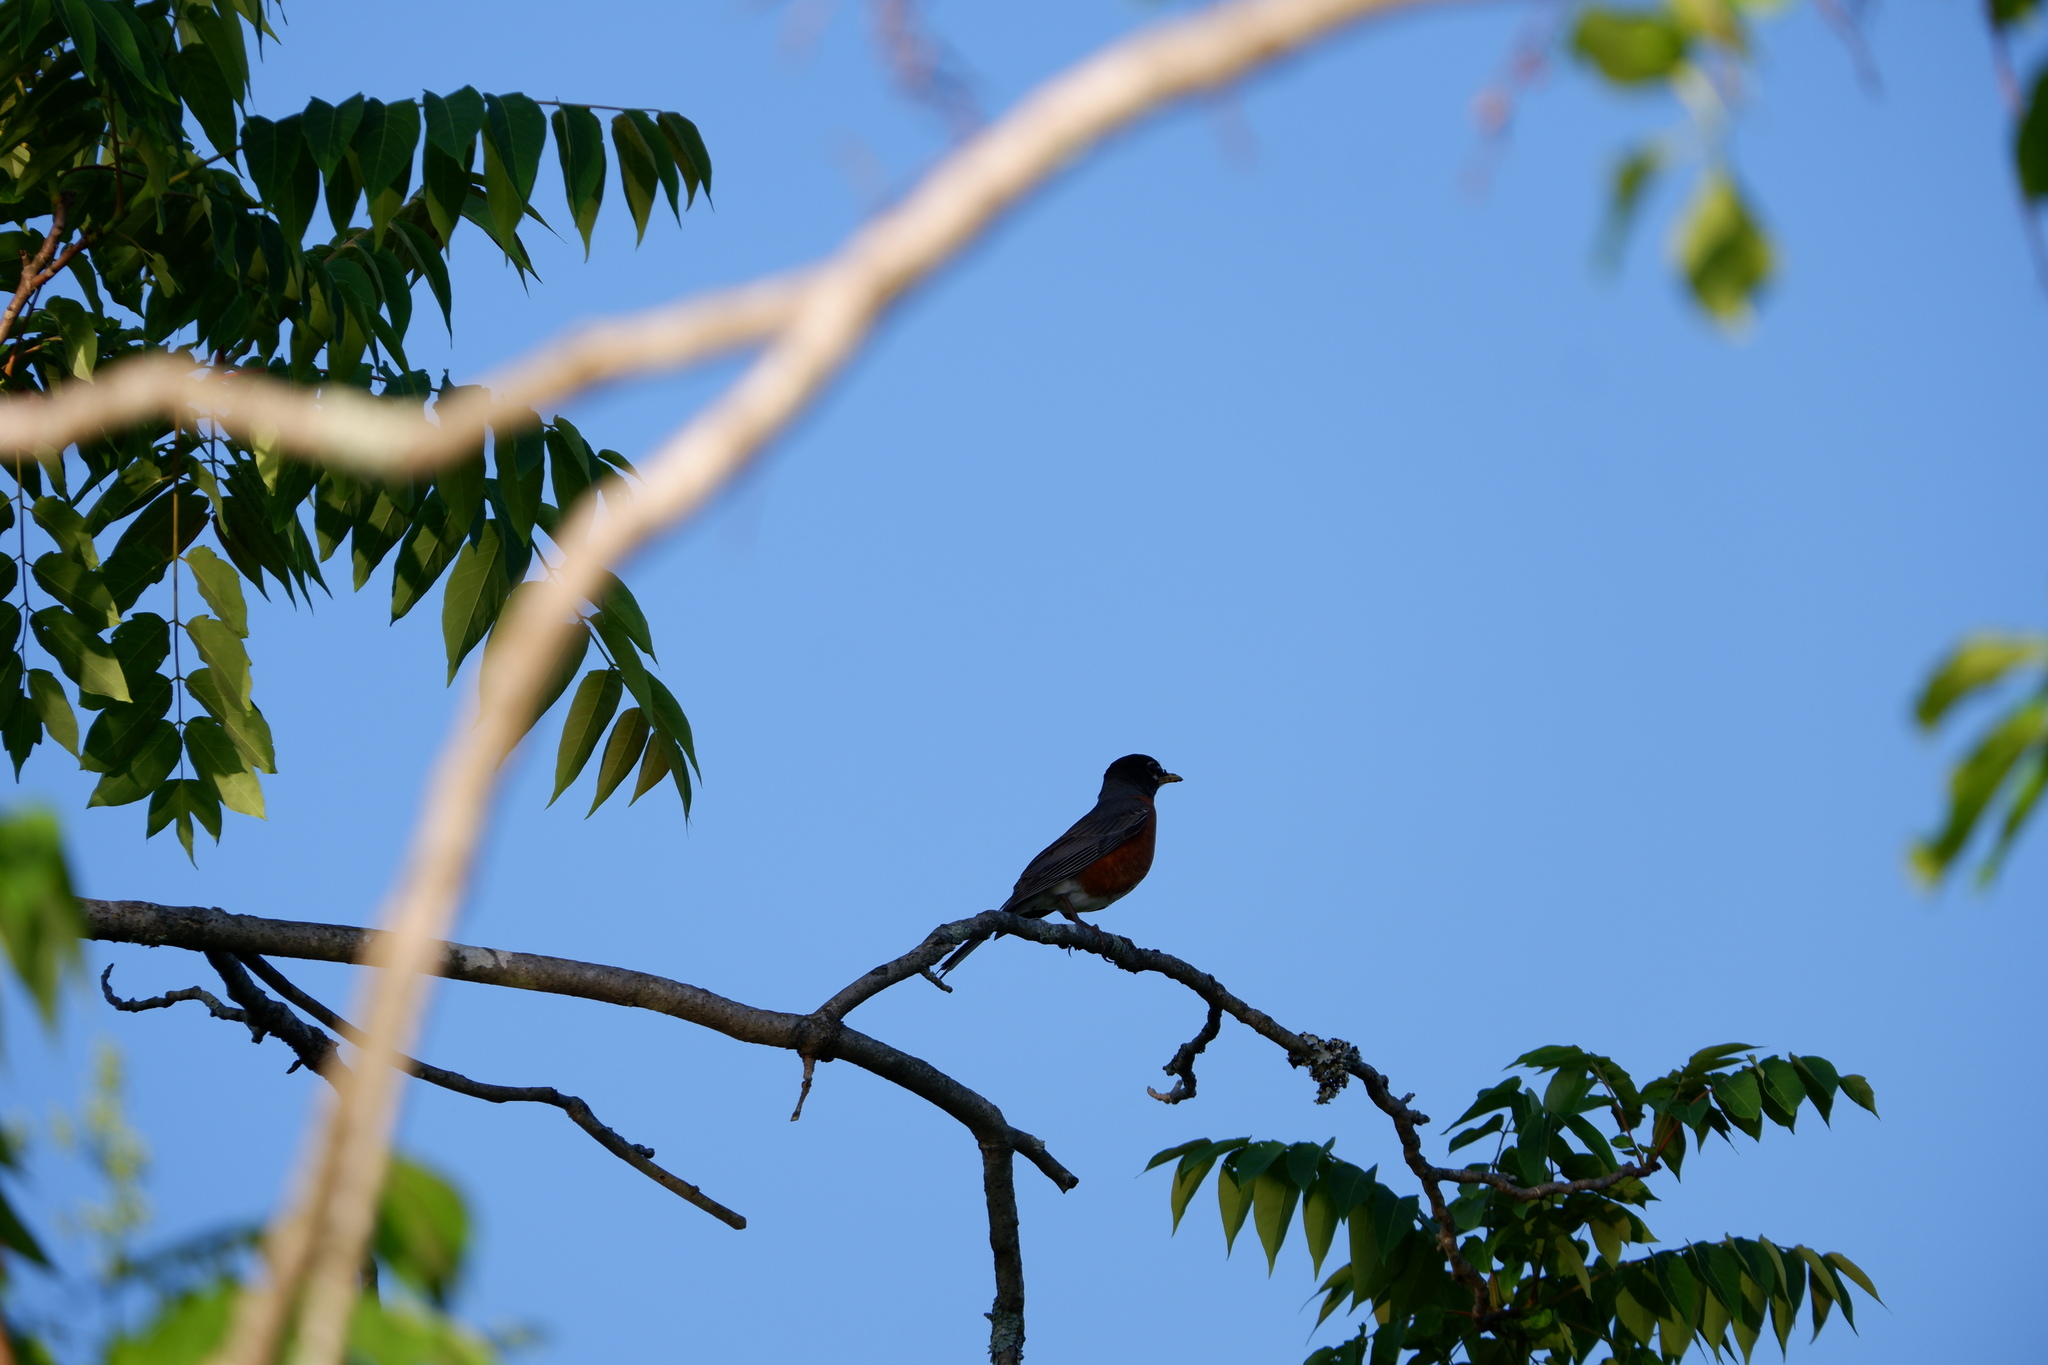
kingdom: Animalia
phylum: Chordata
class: Aves
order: Passeriformes
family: Turdidae
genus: Turdus
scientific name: Turdus migratorius
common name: American robin
